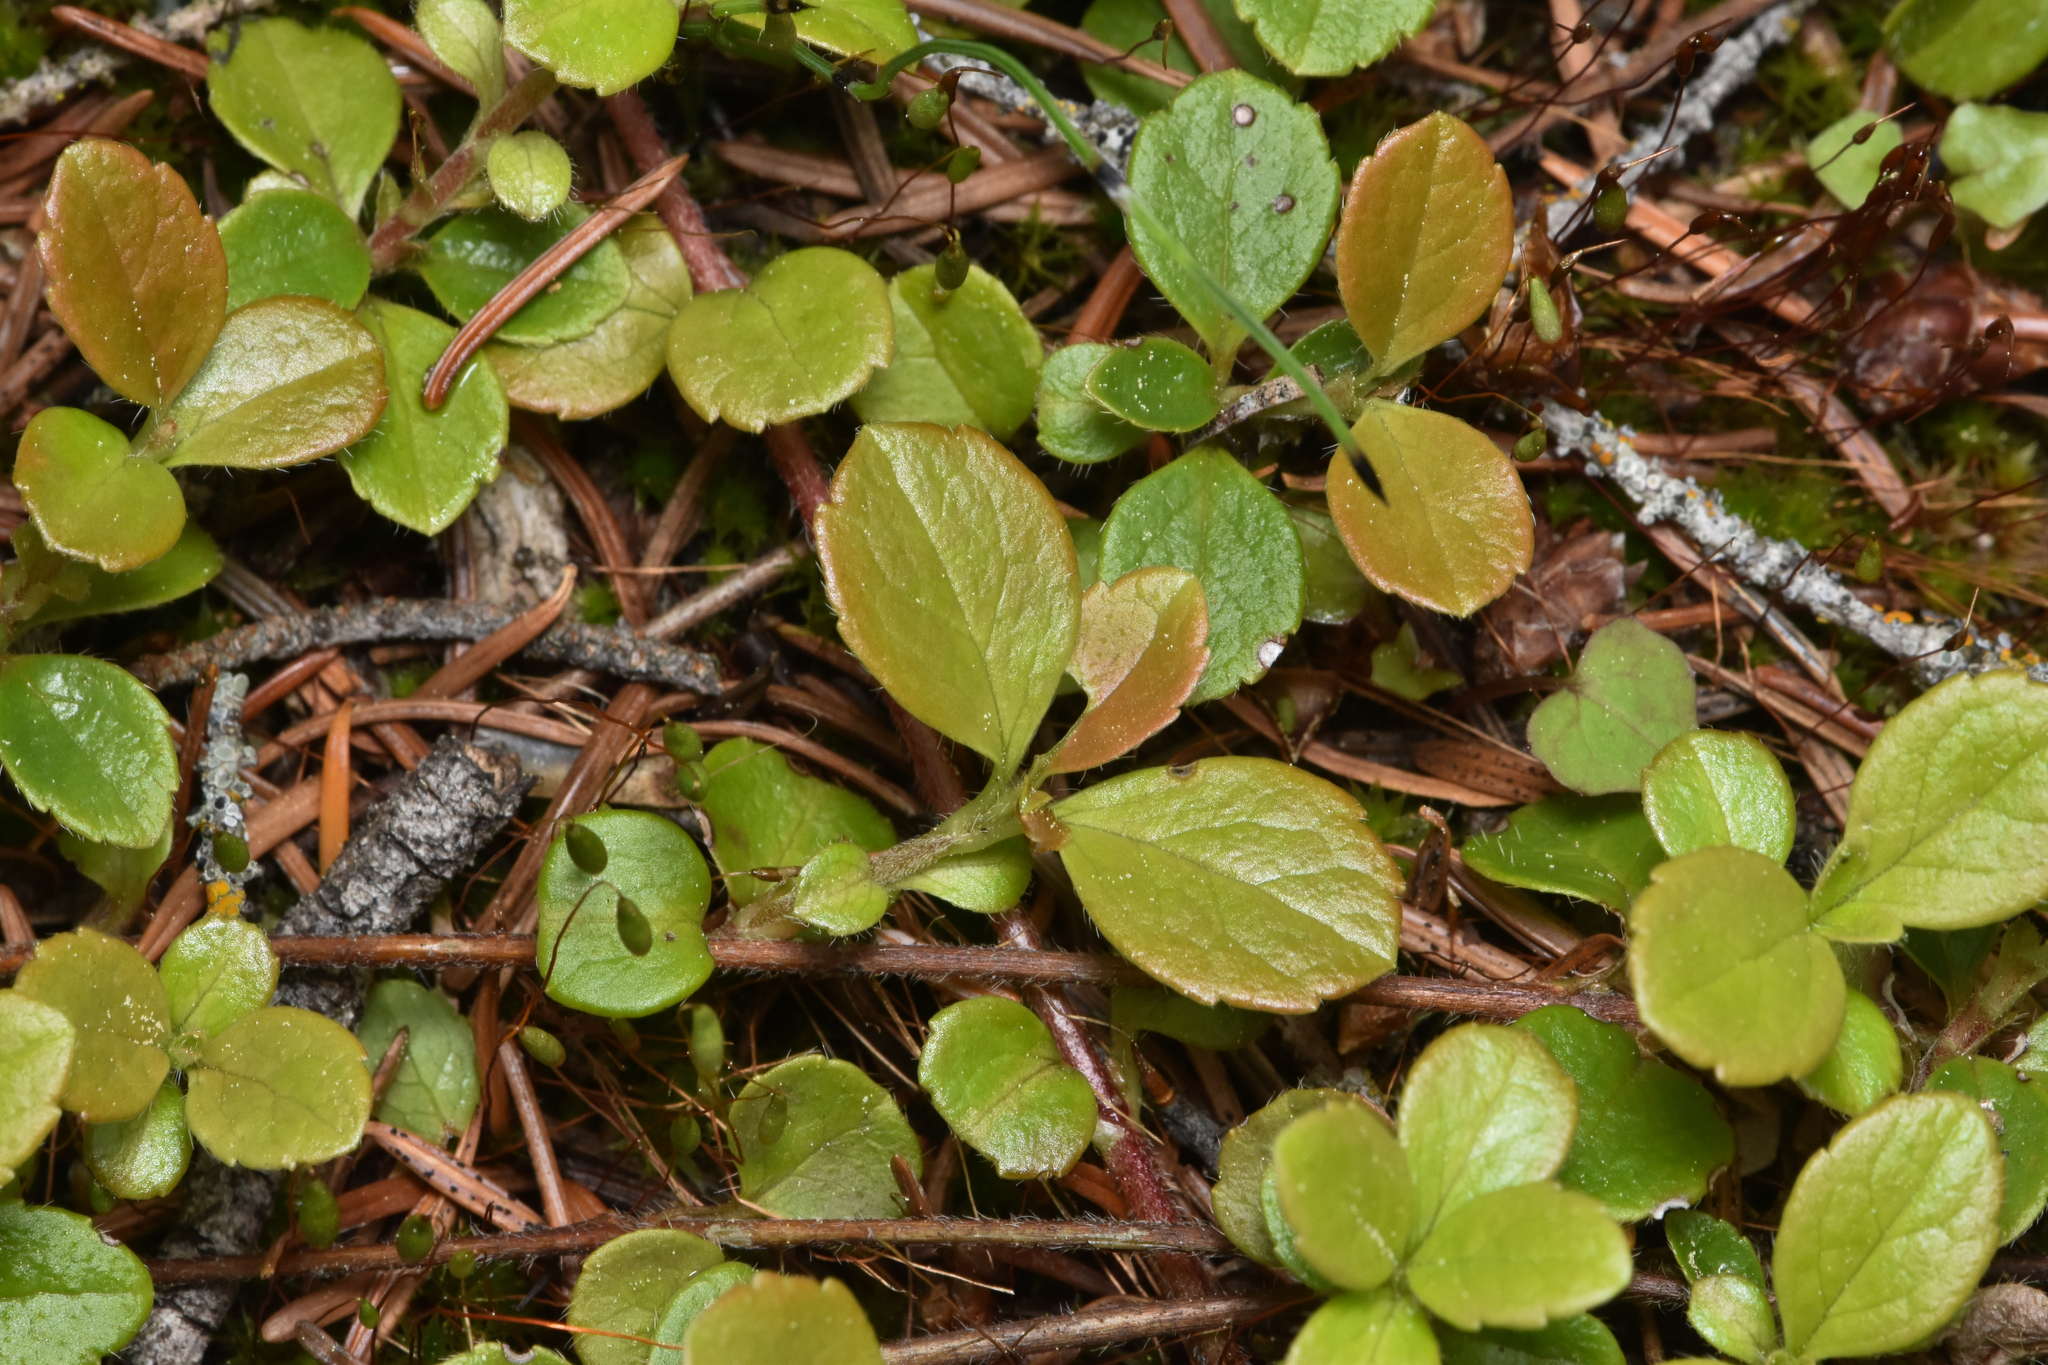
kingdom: Plantae
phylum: Tracheophyta
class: Magnoliopsida
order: Dipsacales
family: Caprifoliaceae
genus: Linnaea
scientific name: Linnaea borealis
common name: Twinflower
